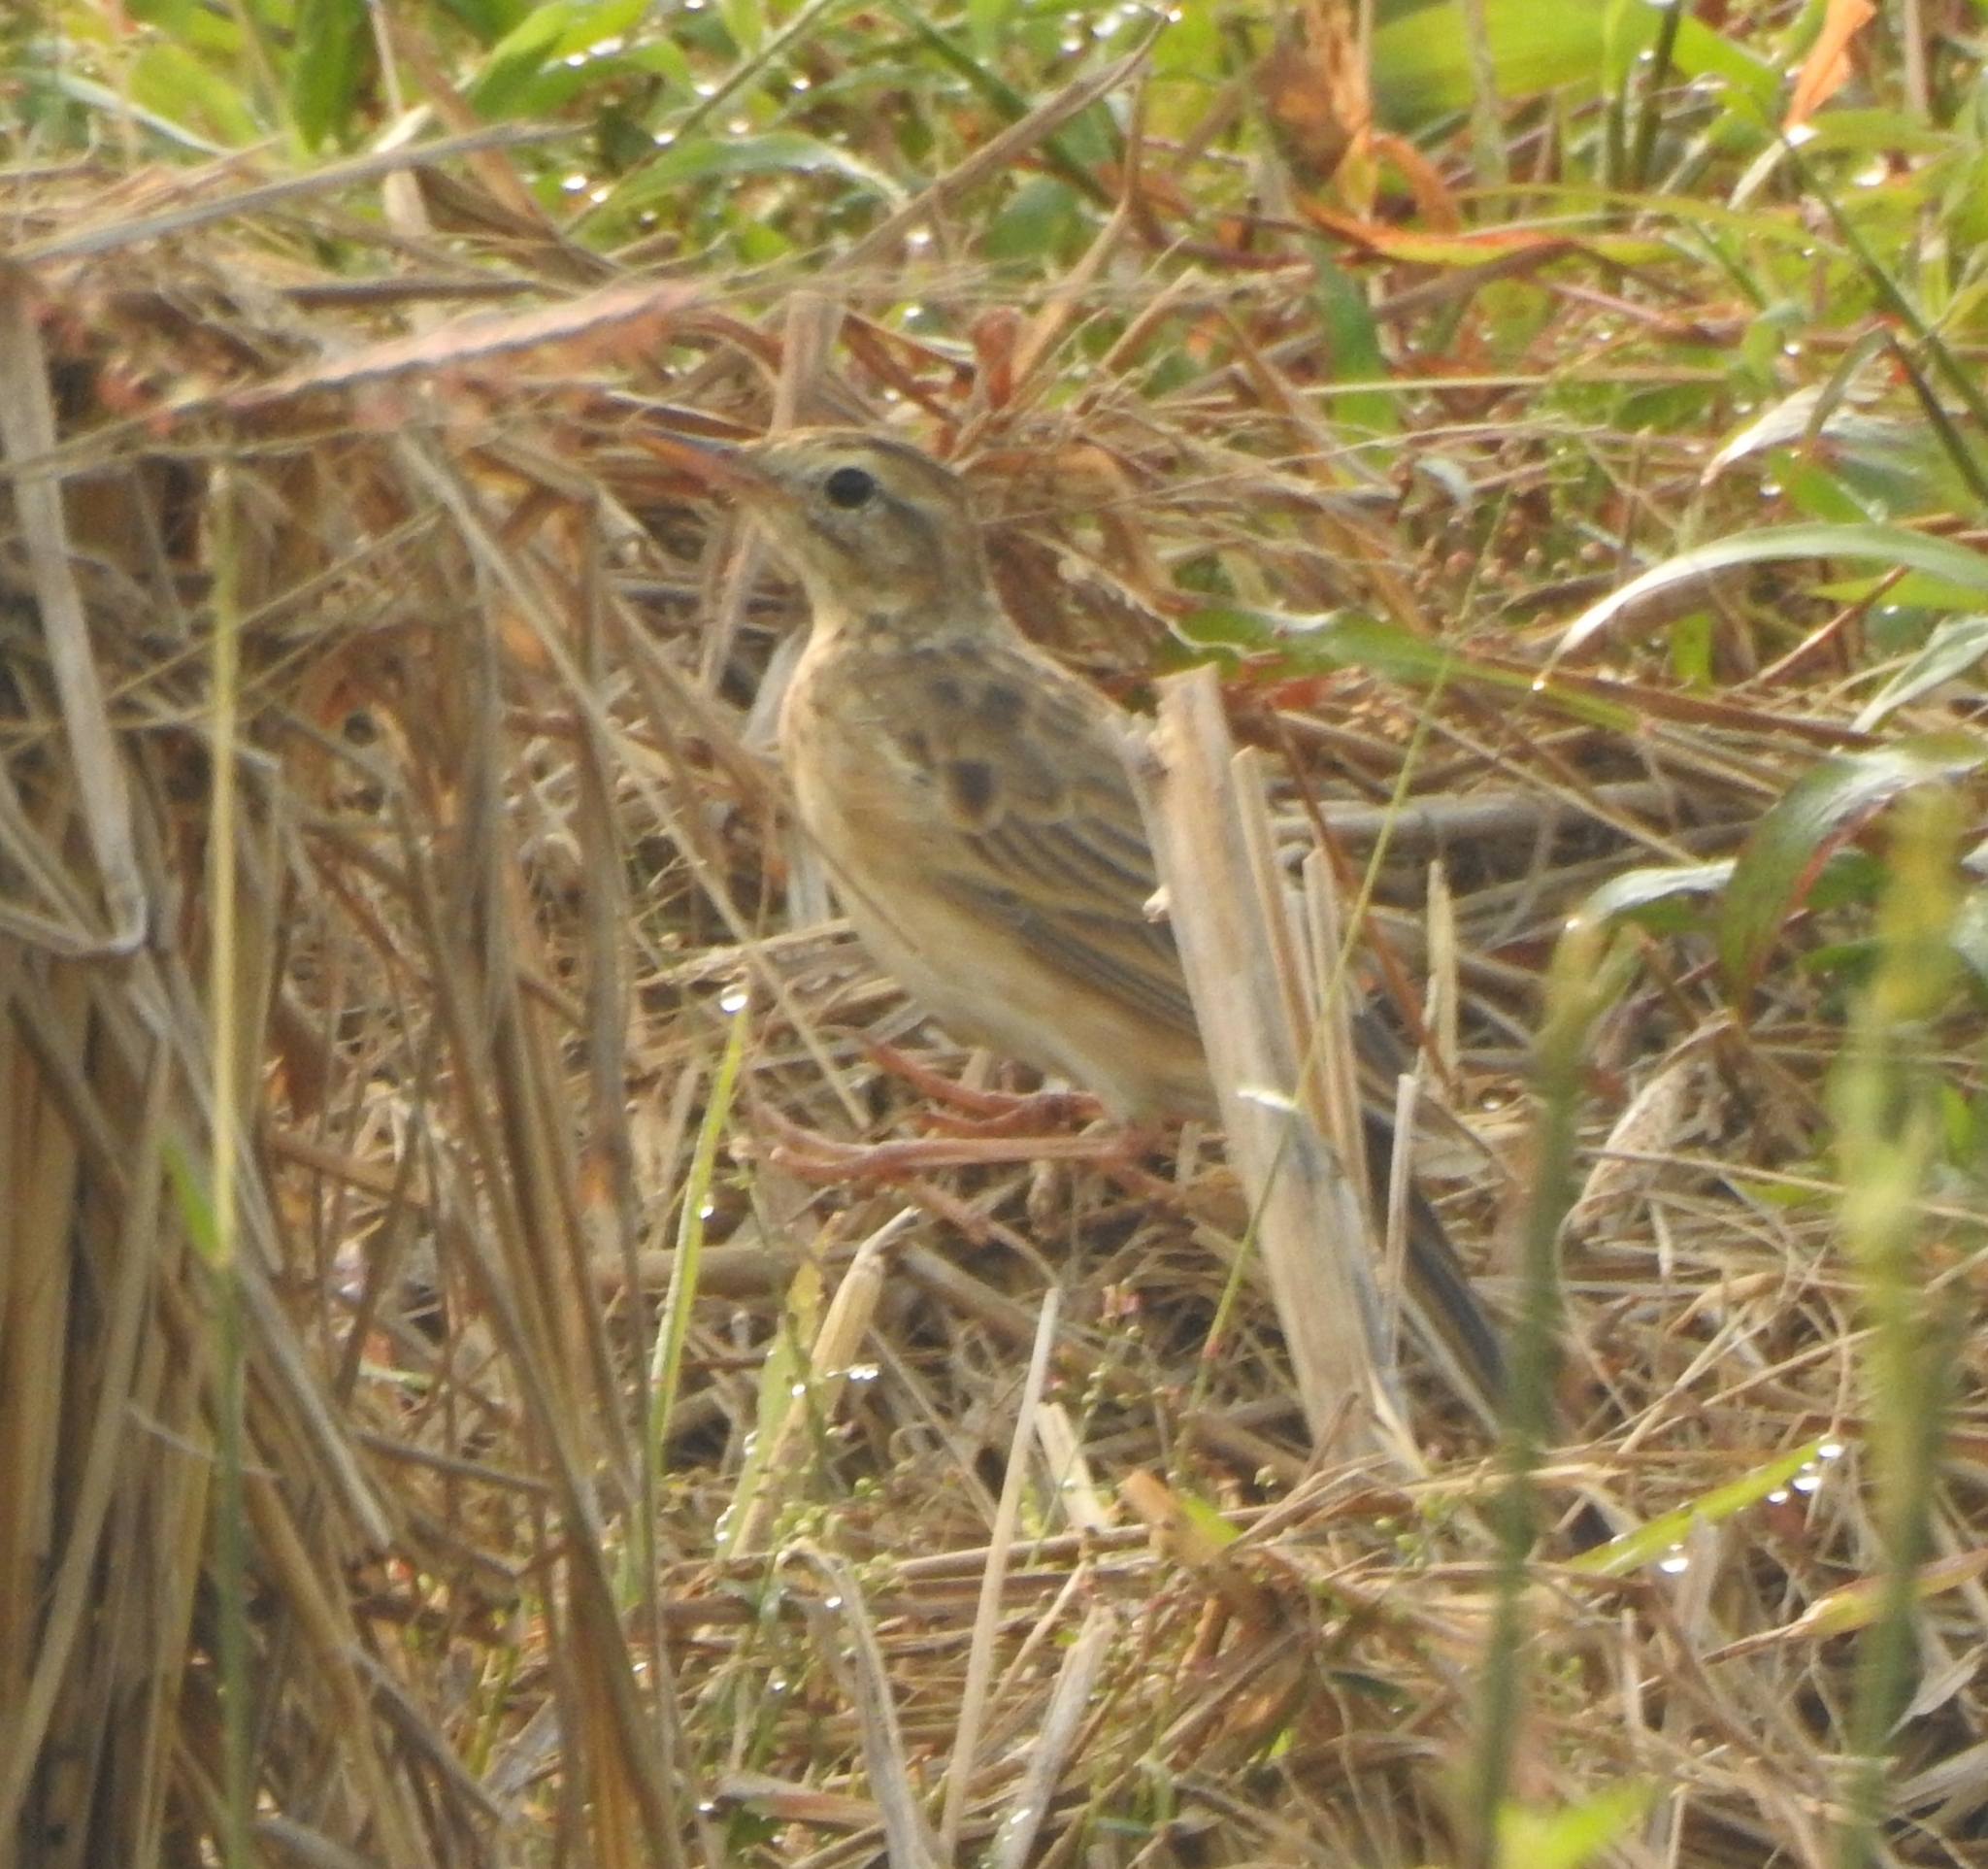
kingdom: Animalia
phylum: Chordata
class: Aves
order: Passeriformes
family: Motacillidae
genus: Anthus
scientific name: Anthus rufulus
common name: Paddyfield pipit
